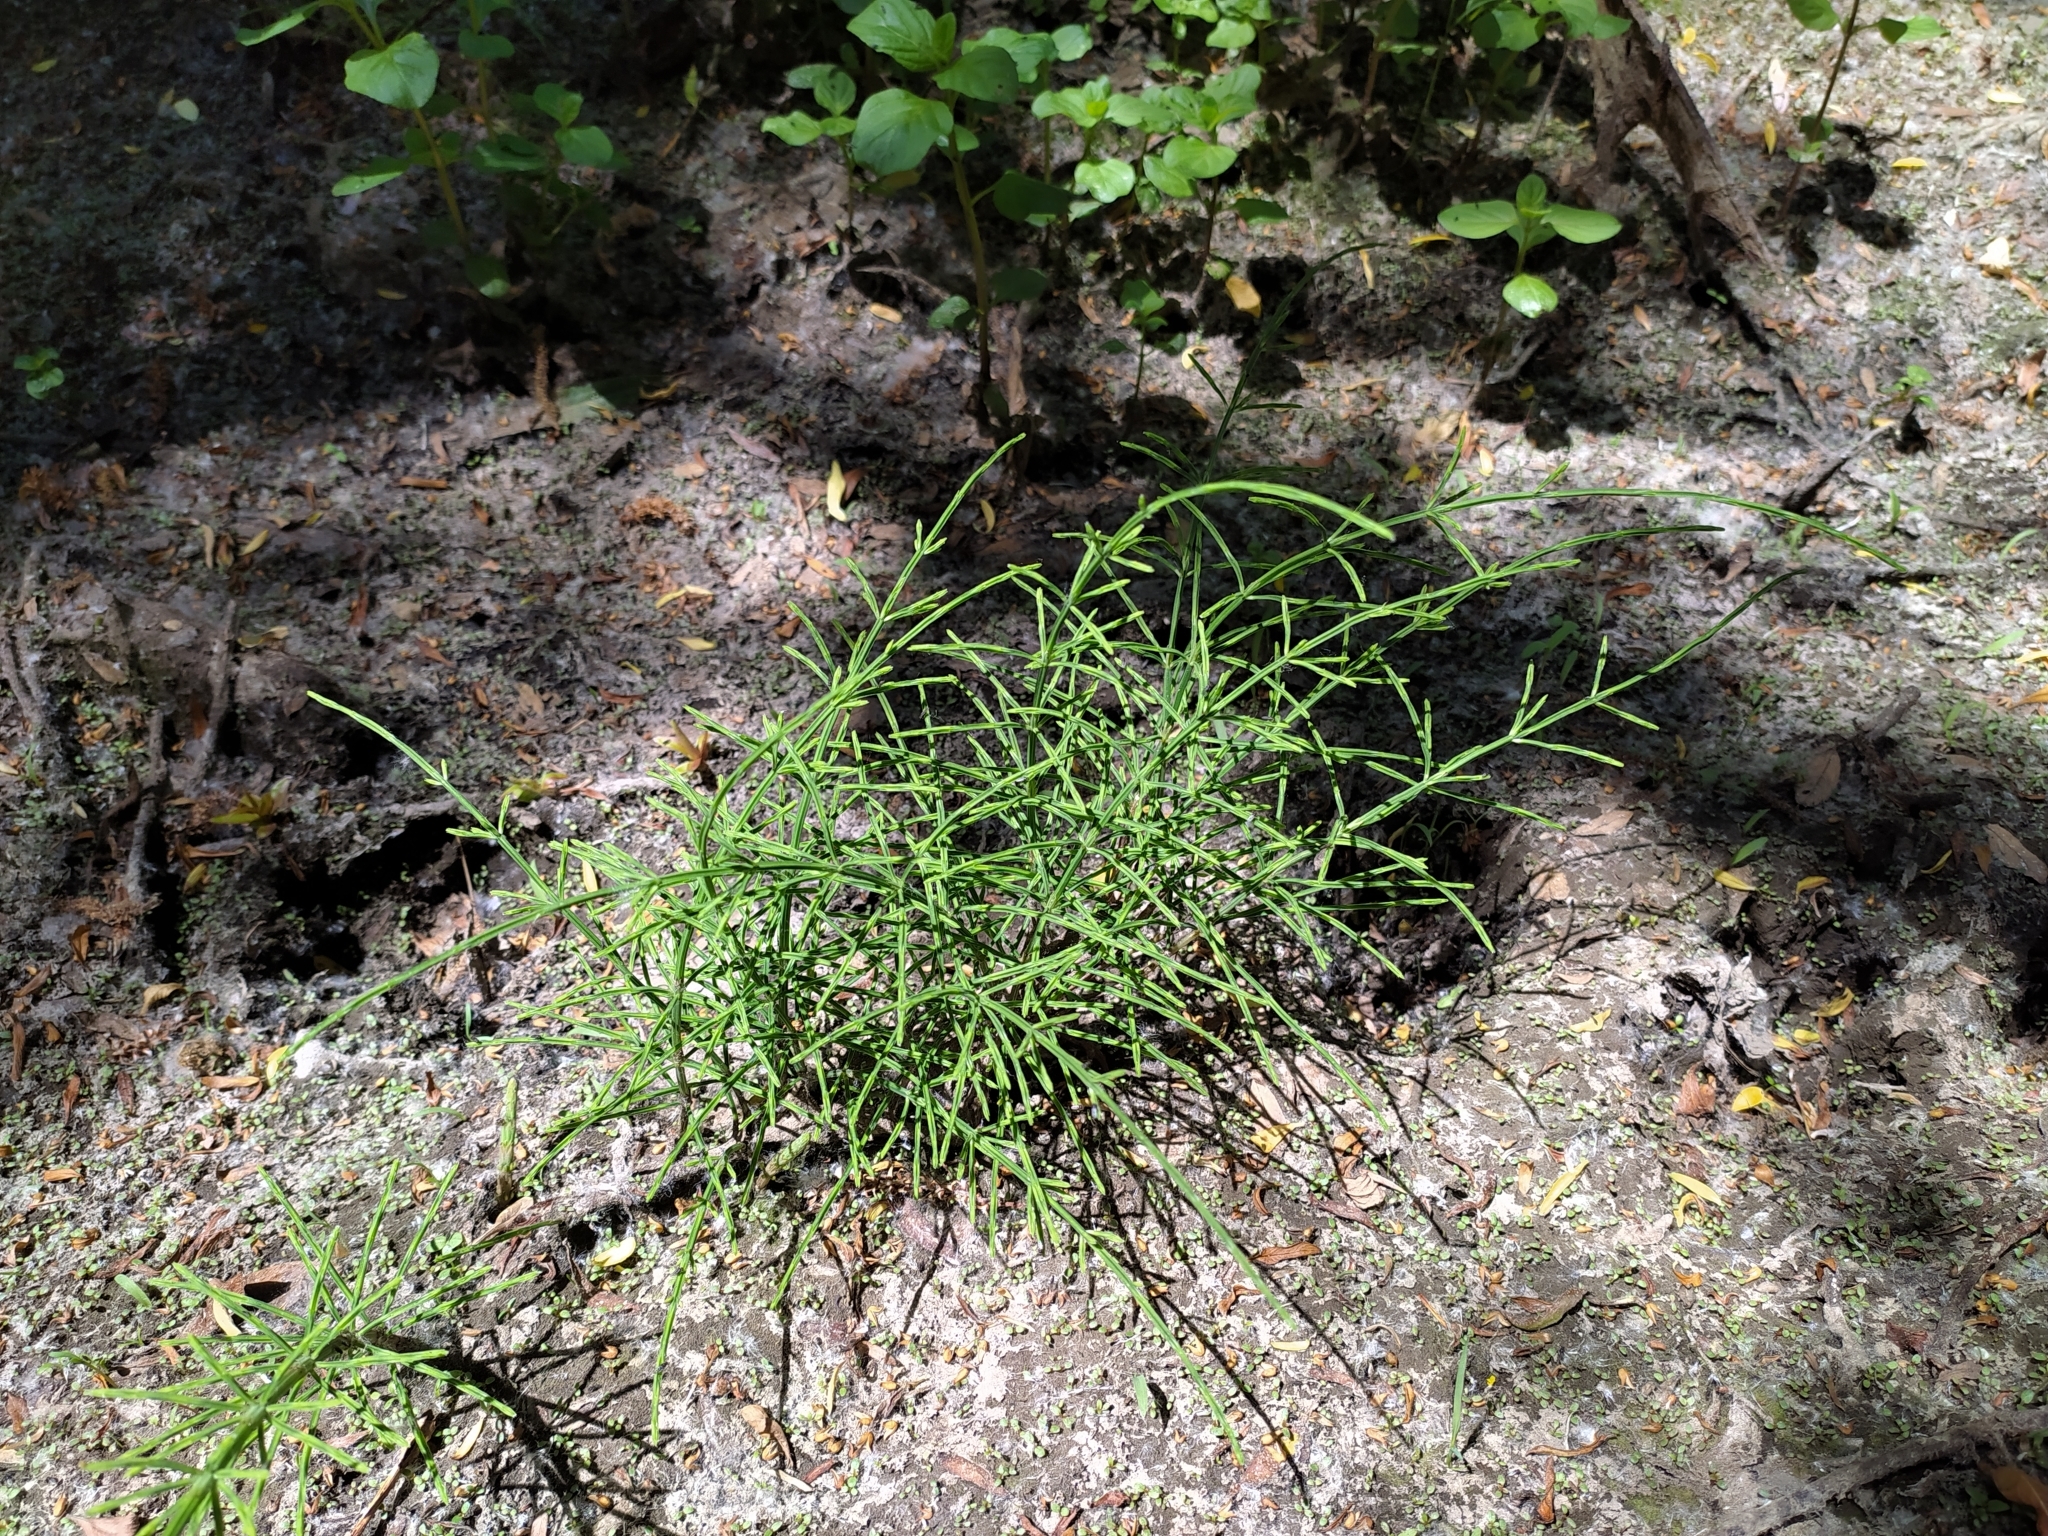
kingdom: Plantae
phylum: Tracheophyta
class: Polypodiopsida
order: Equisetales
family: Equisetaceae
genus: Equisetum
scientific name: Equisetum arvense
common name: Field horsetail
